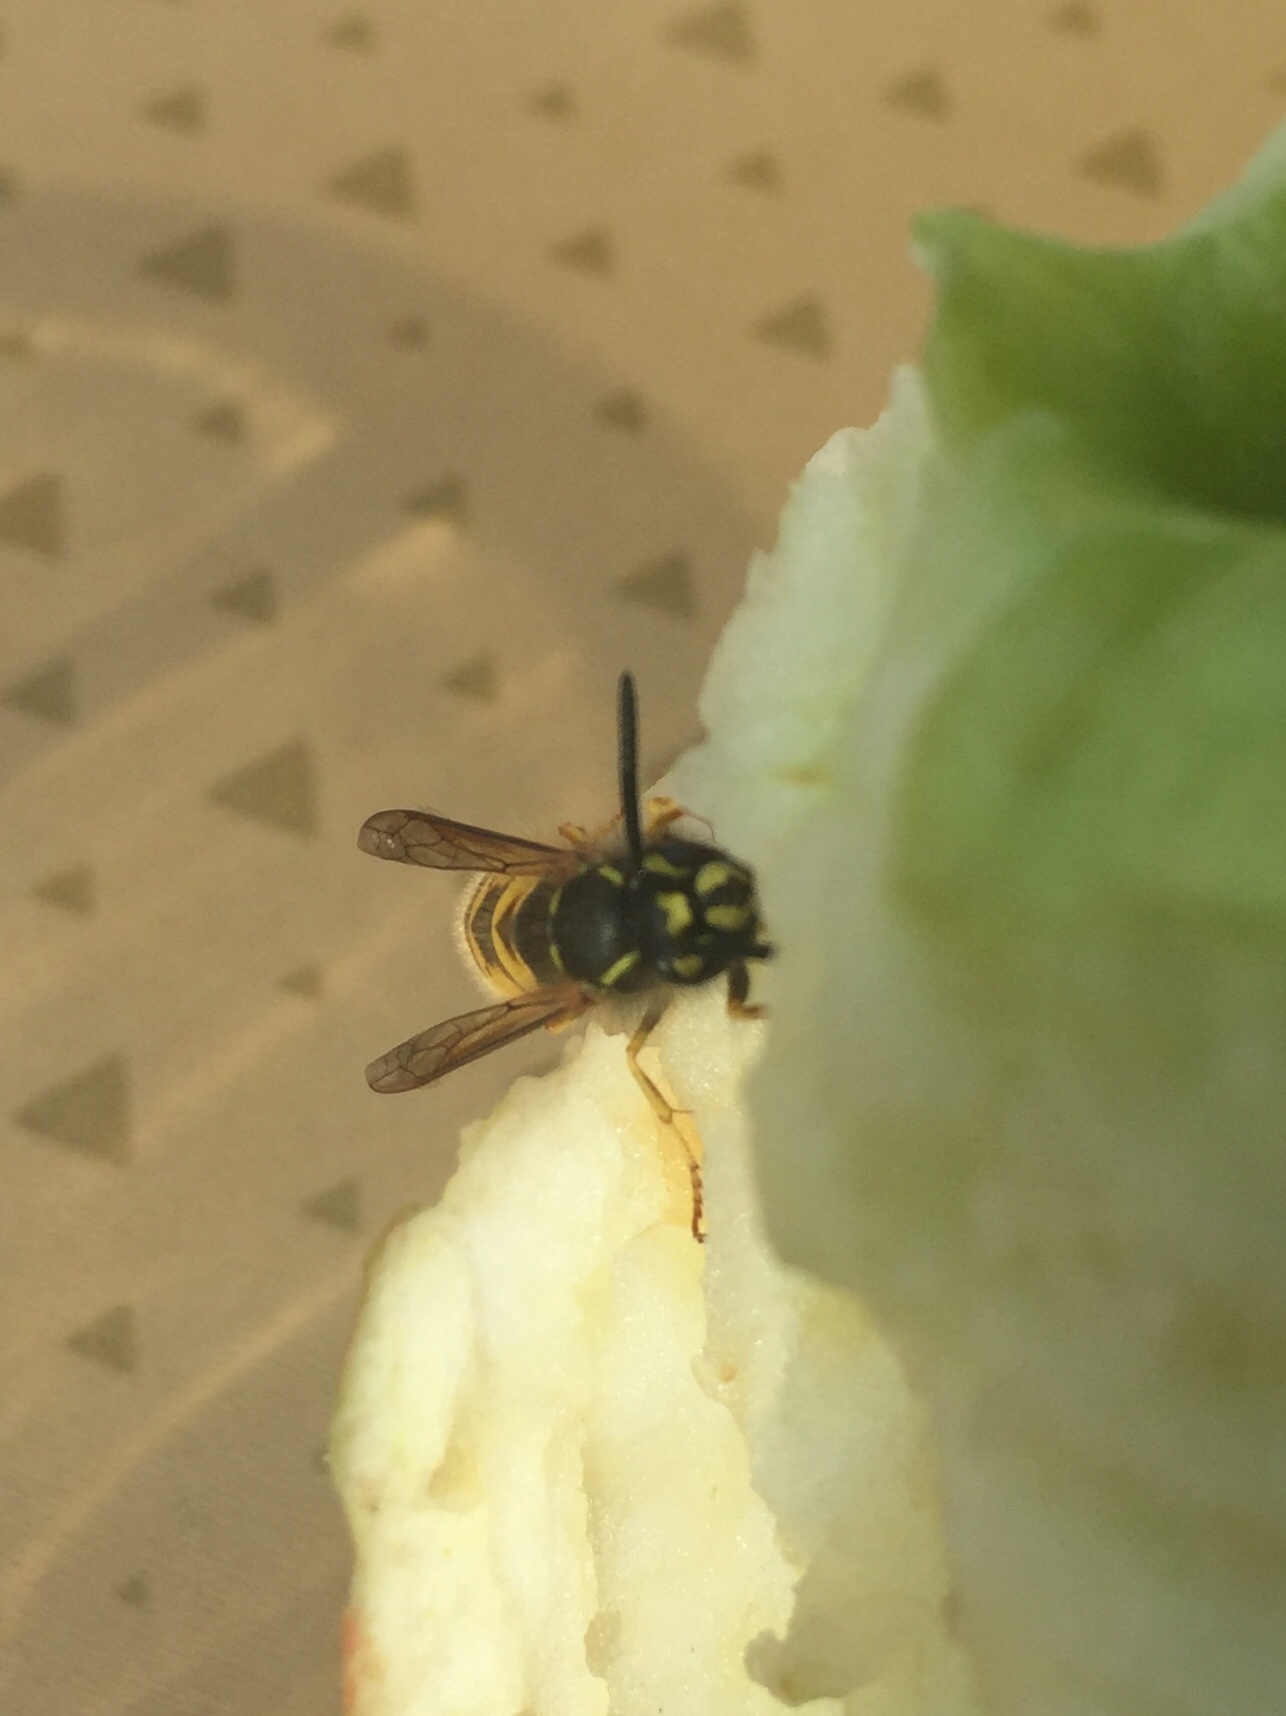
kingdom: Animalia
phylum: Arthropoda
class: Insecta
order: Hymenoptera
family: Vespidae
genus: Vespula
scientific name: Vespula vulgaris
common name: Common wasp
